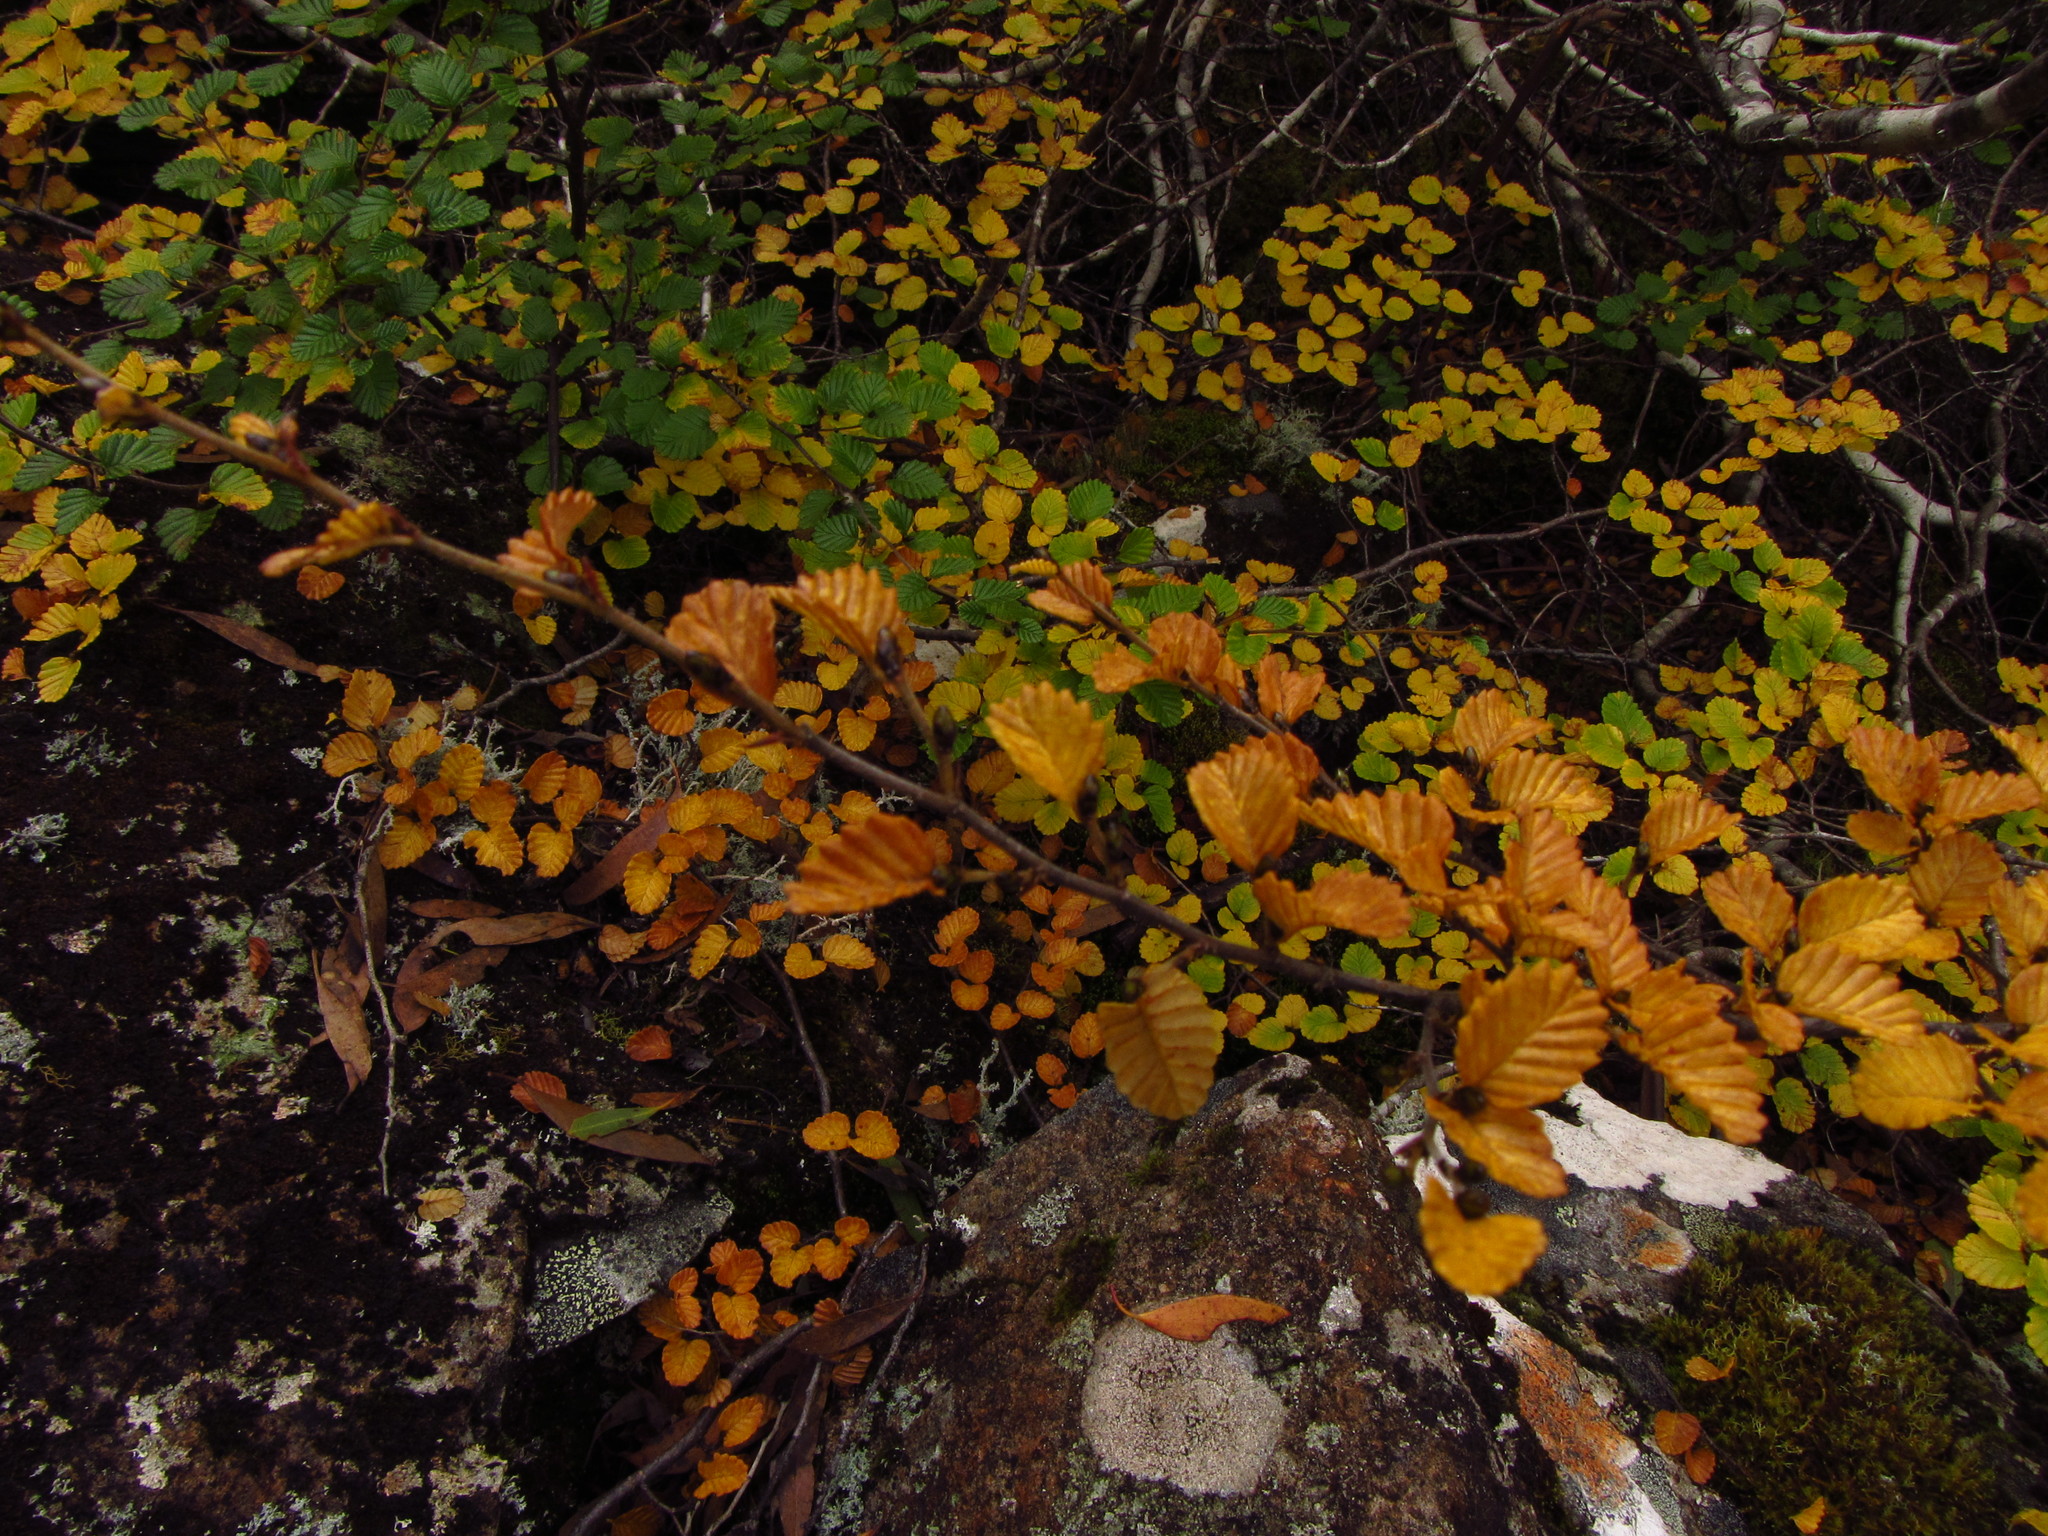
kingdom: Plantae
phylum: Tracheophyta
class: Magnoliopsida
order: Fagales
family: Nothofagaceae
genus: Nothofagus
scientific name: Nothofagus gunnii
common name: Tanglefoot
